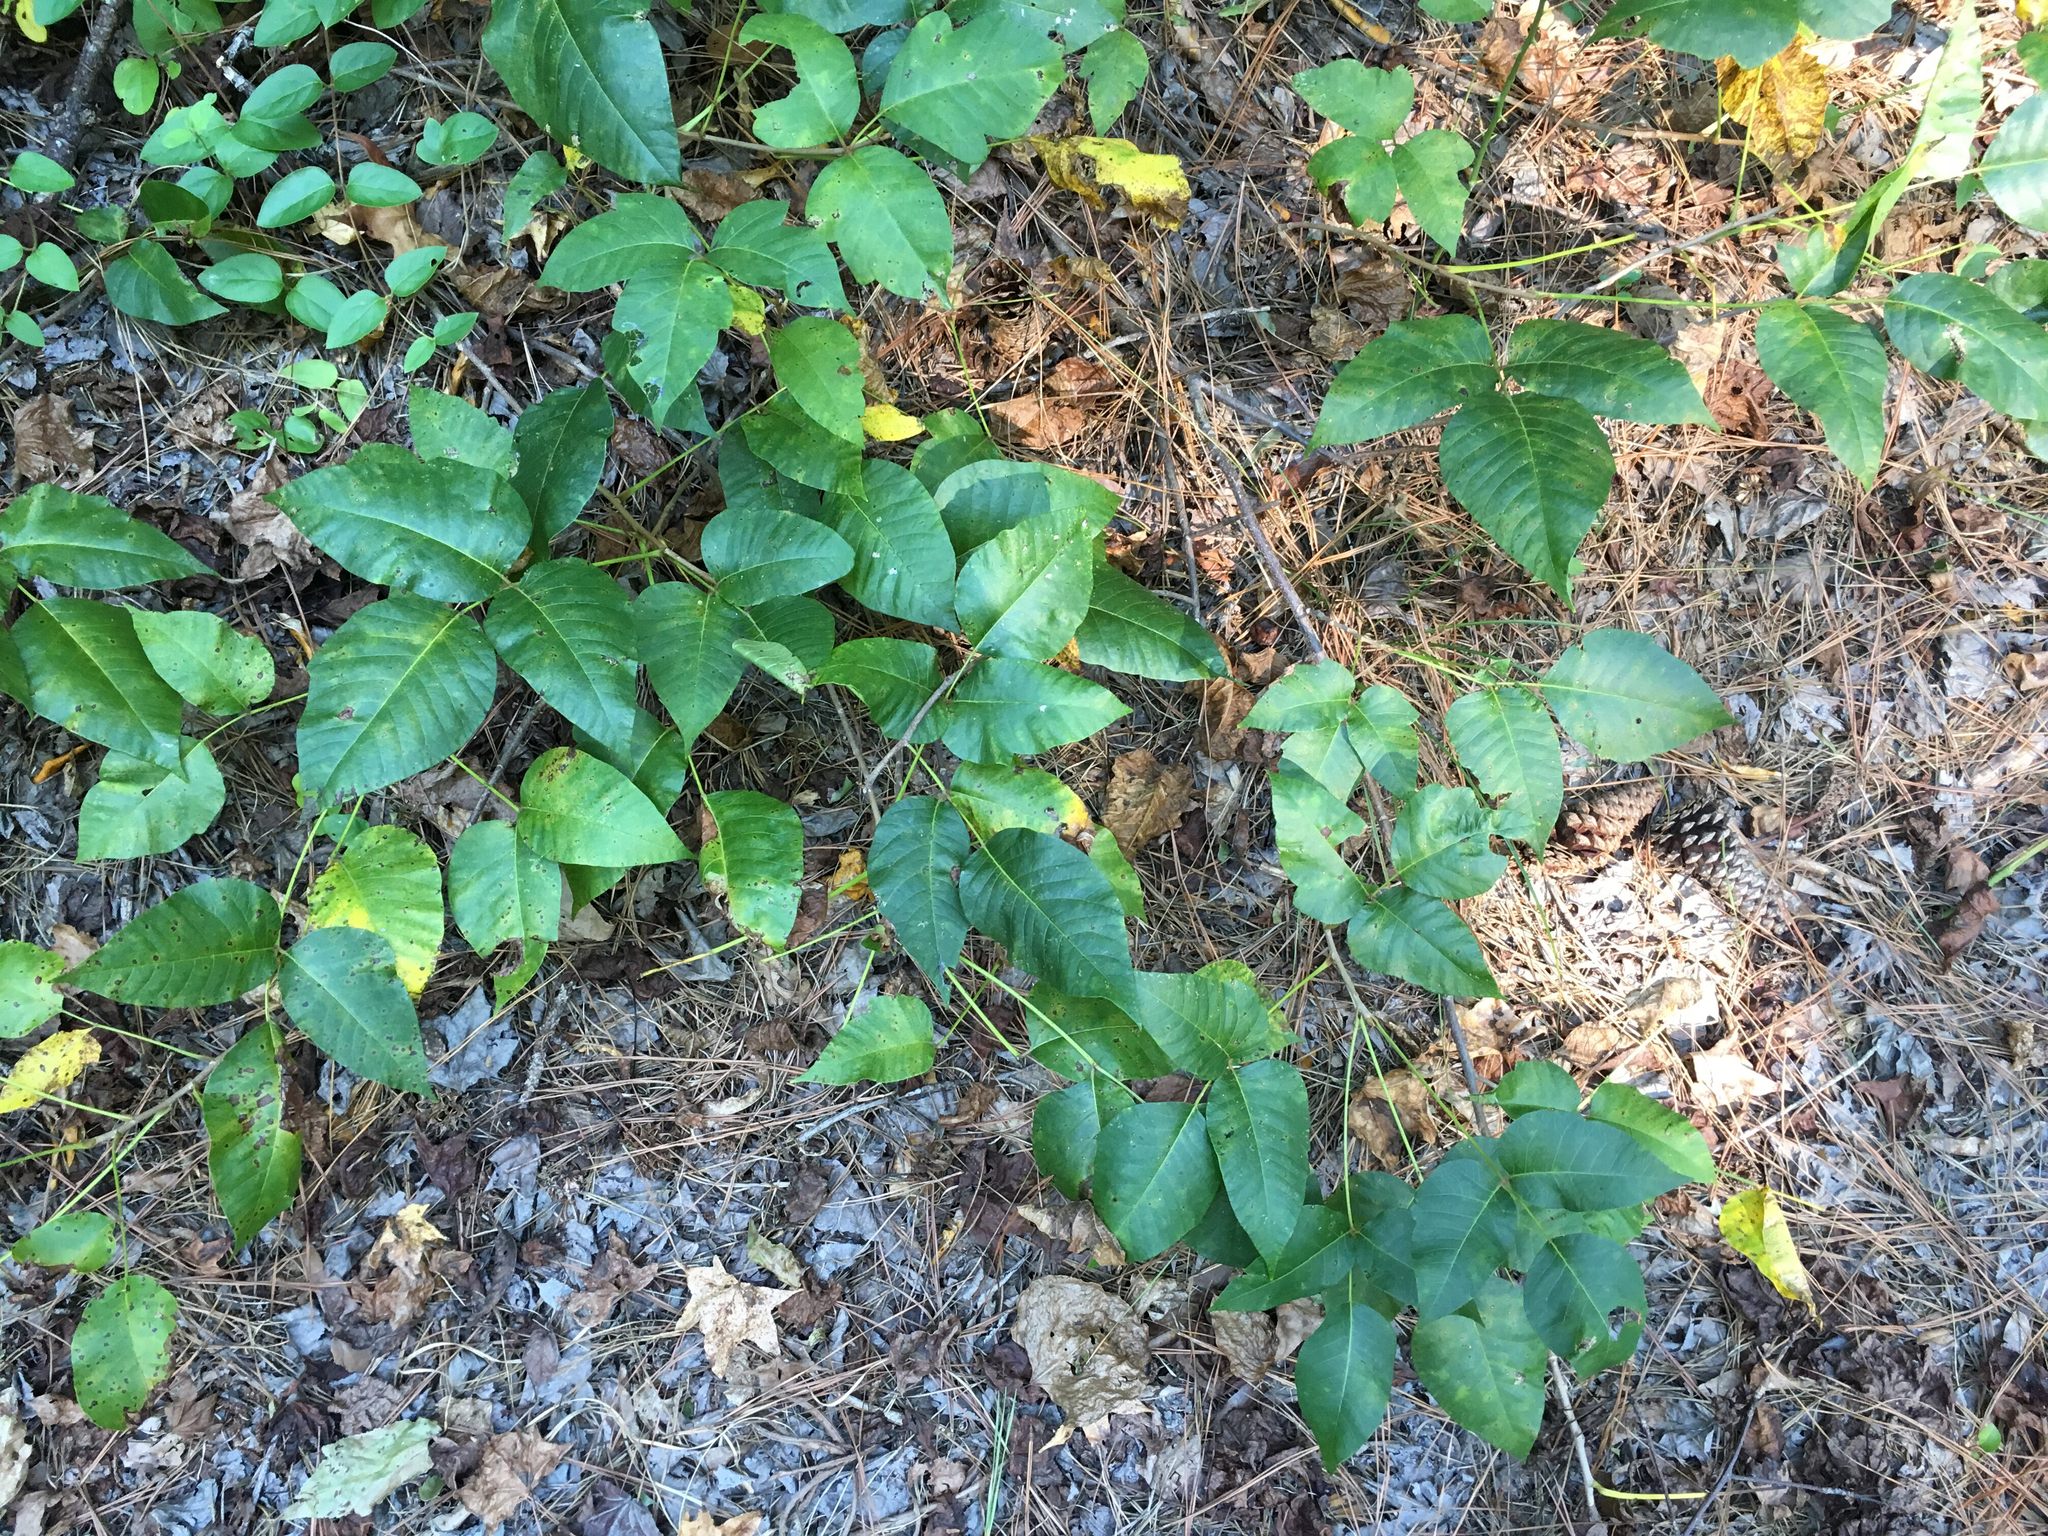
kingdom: Plantae
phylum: Tracheophyta
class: Magnoliopsida
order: Sapindales
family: Anacardiaceae
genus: Toxicodendron
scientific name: Toxicodendron radicans
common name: Poison ivy
